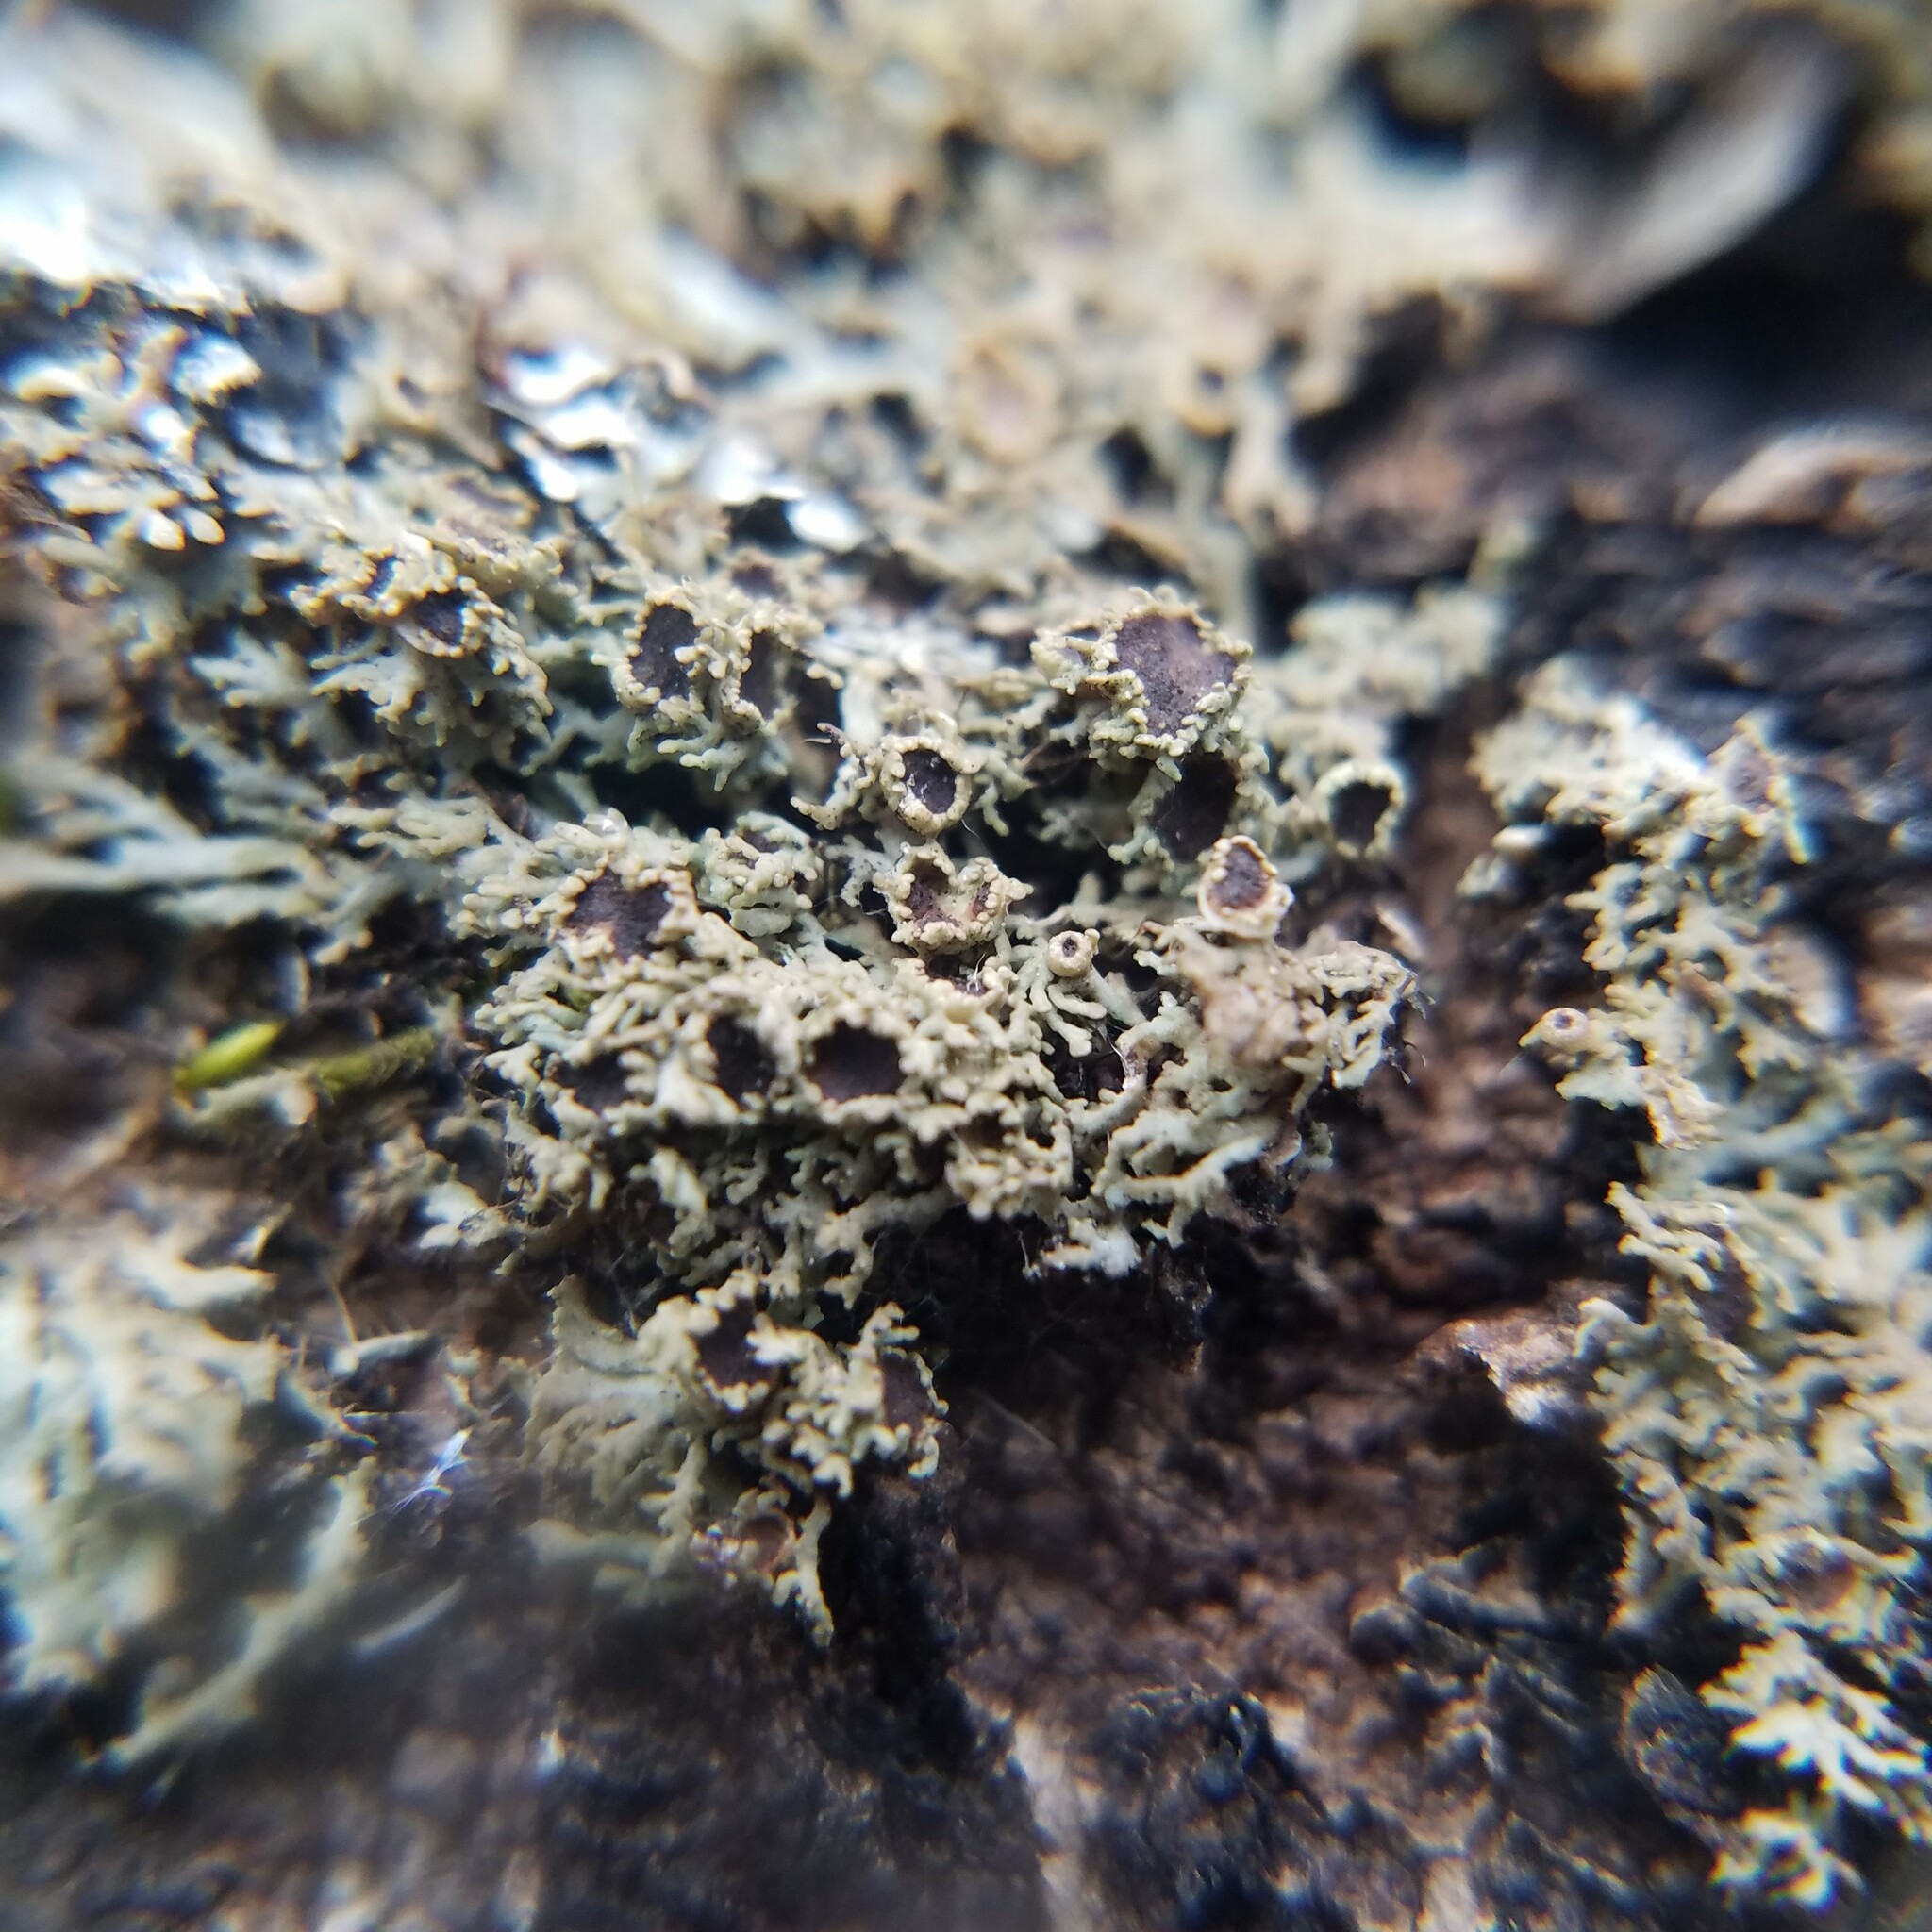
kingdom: Fungi
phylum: Ascomycota
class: Lecanoromycetes
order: Caliciales
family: Physciaceae
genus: Kurokawia
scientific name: Kurokawia palmulata
